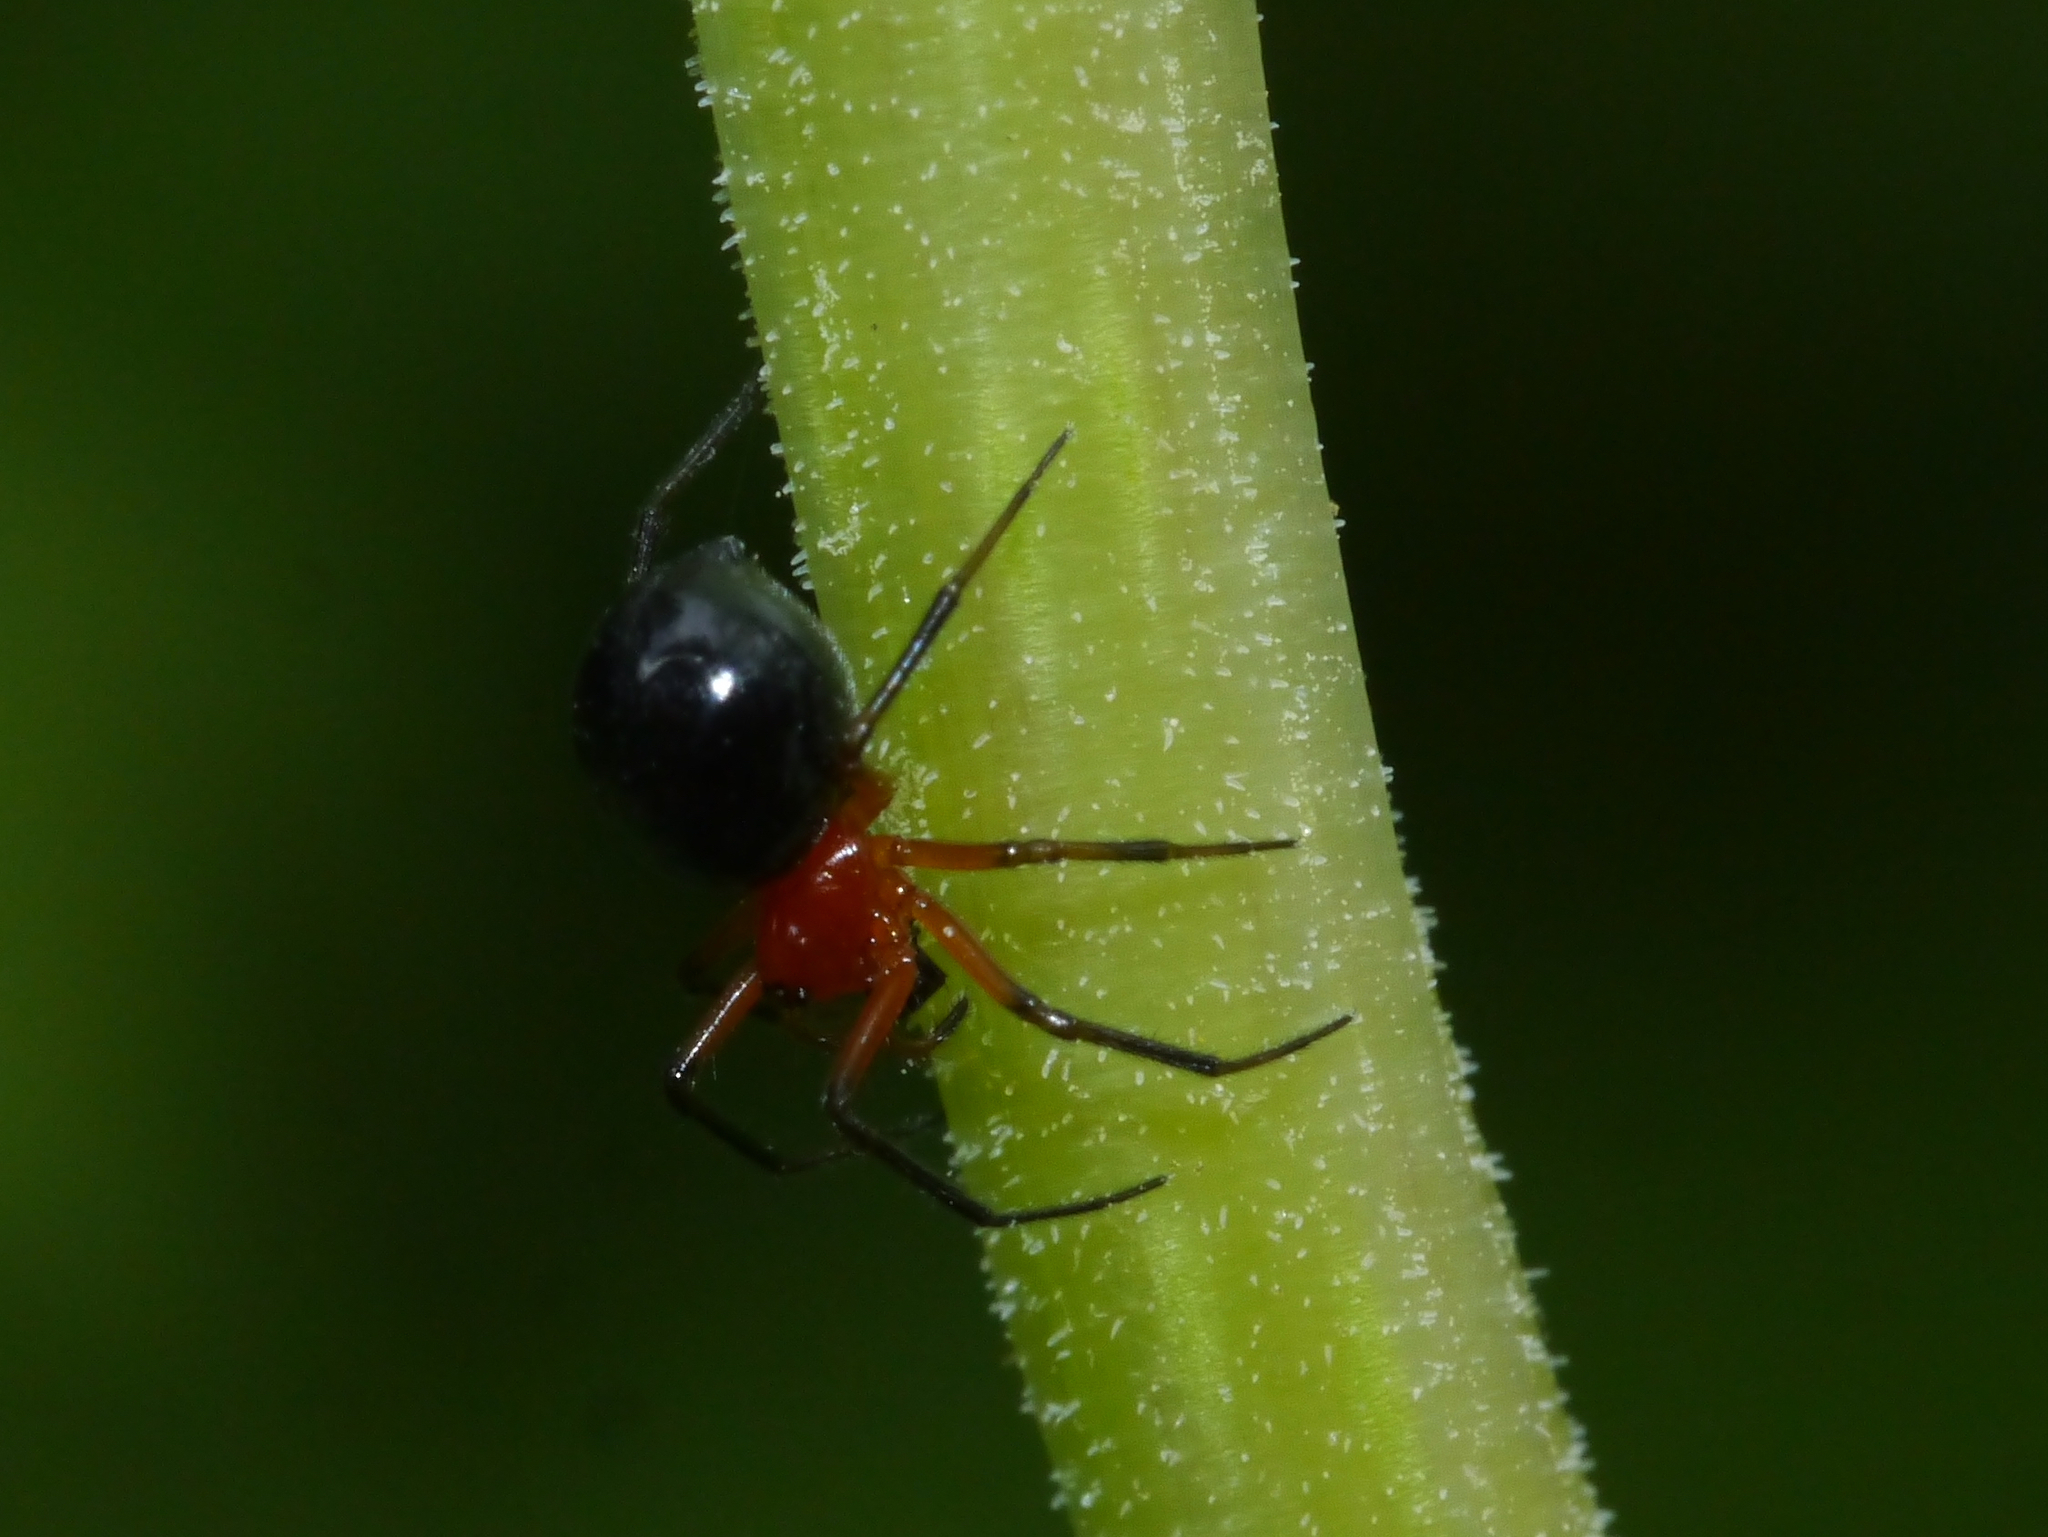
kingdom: Animalia
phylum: Arthropoda
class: Arachnida
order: Araneae
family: Linyphiidae
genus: Hypselistes
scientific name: Hypselistes florens
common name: Peatland sheetweb weaver
